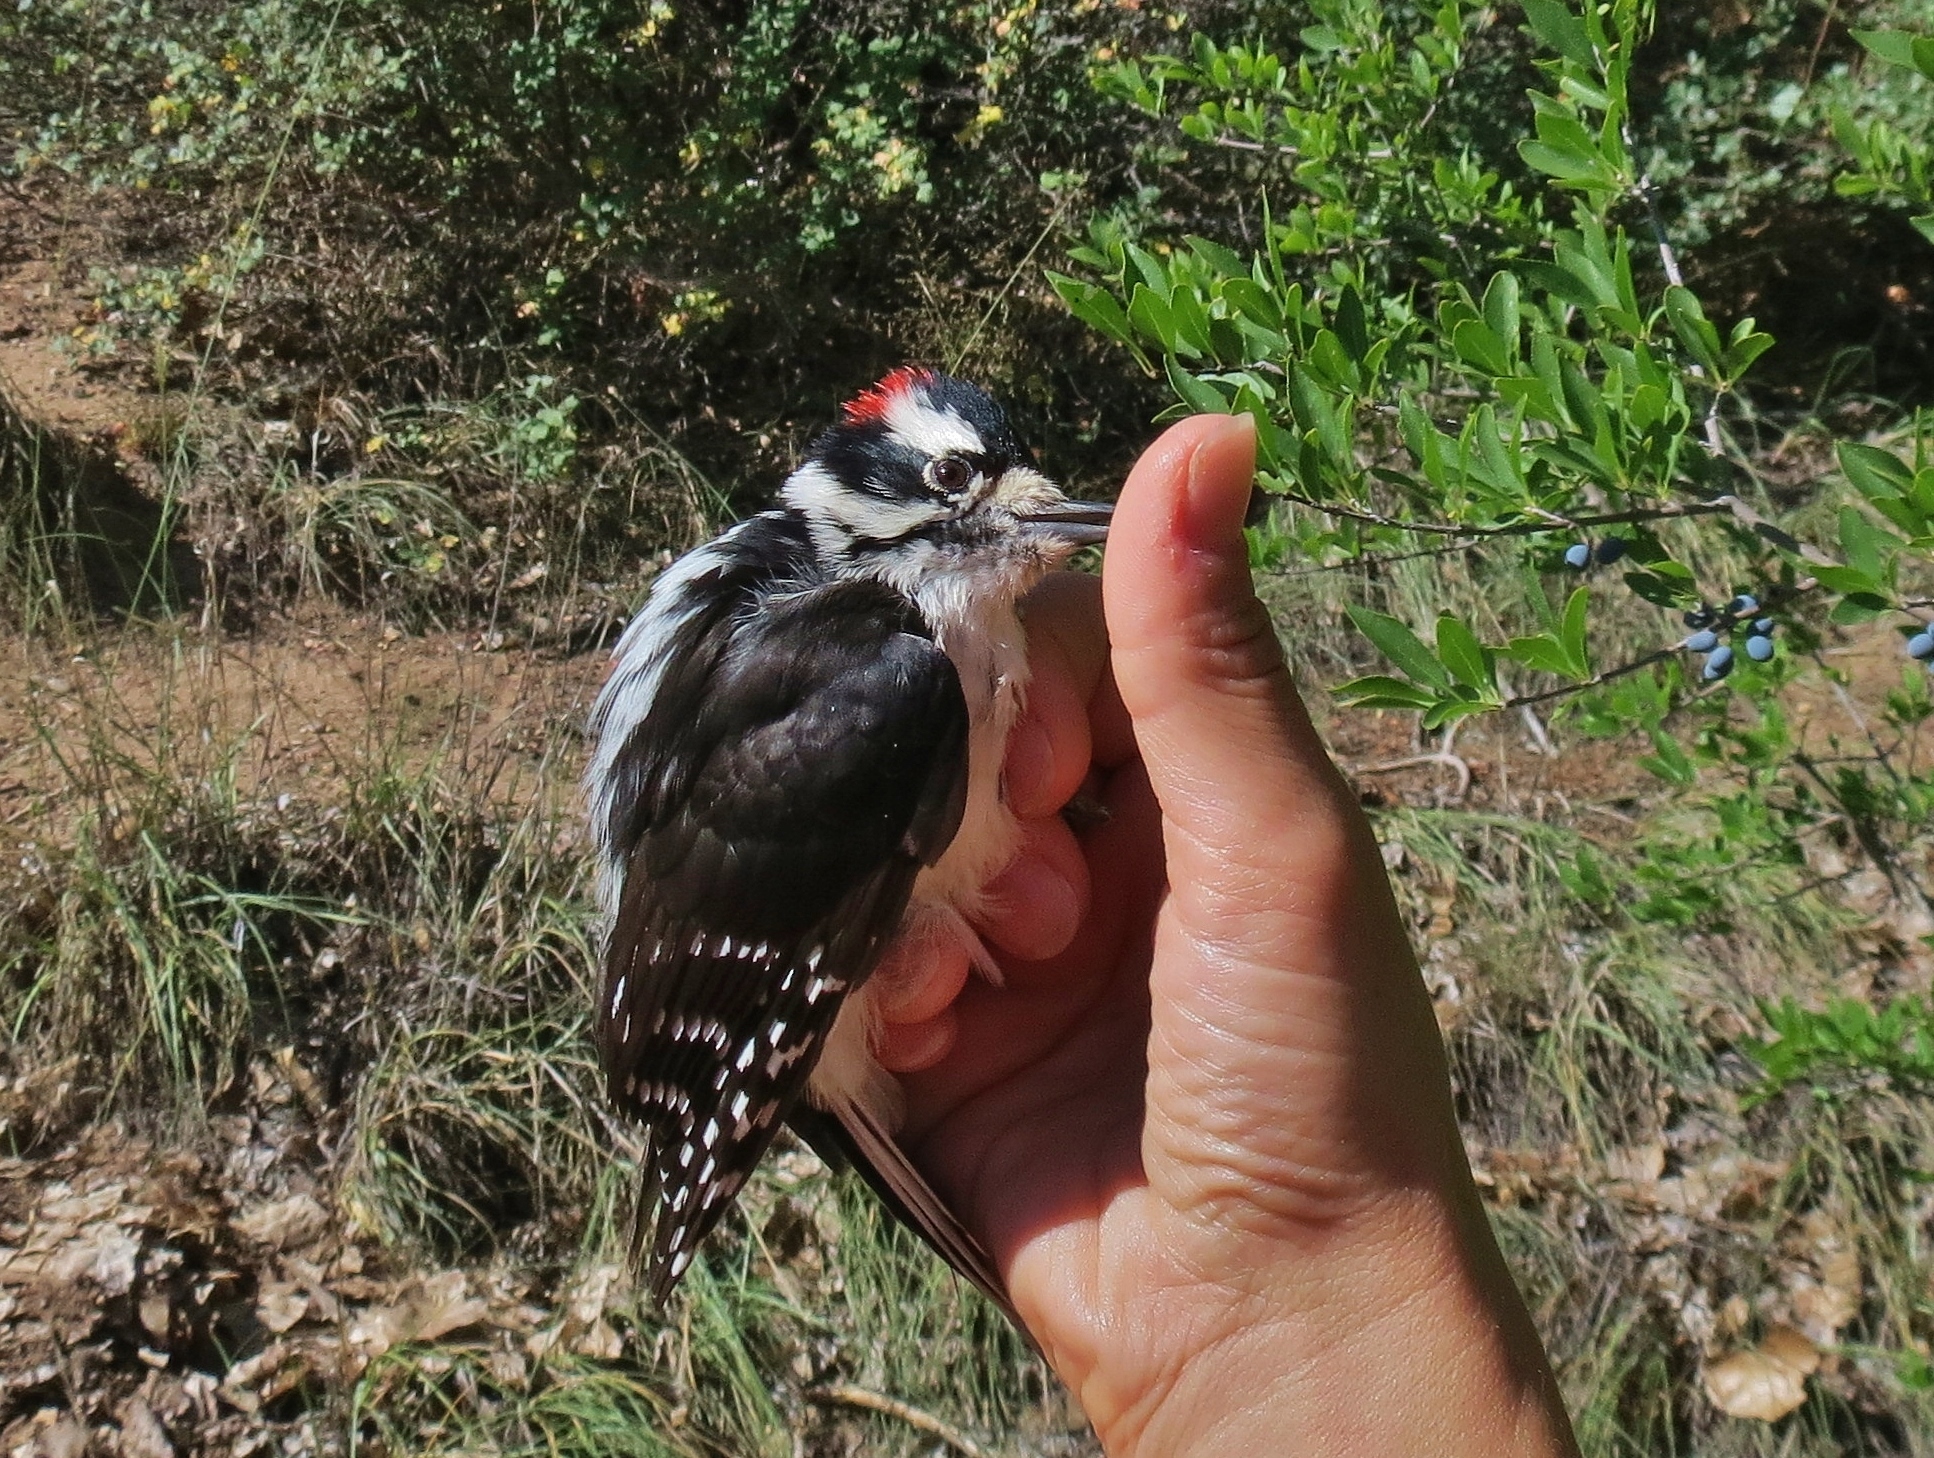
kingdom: Animalia
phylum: Chordata
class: Aves
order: Piciformes
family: Picidae
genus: Dryobates
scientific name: Dryobates pubescens
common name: Downy woodpecker
